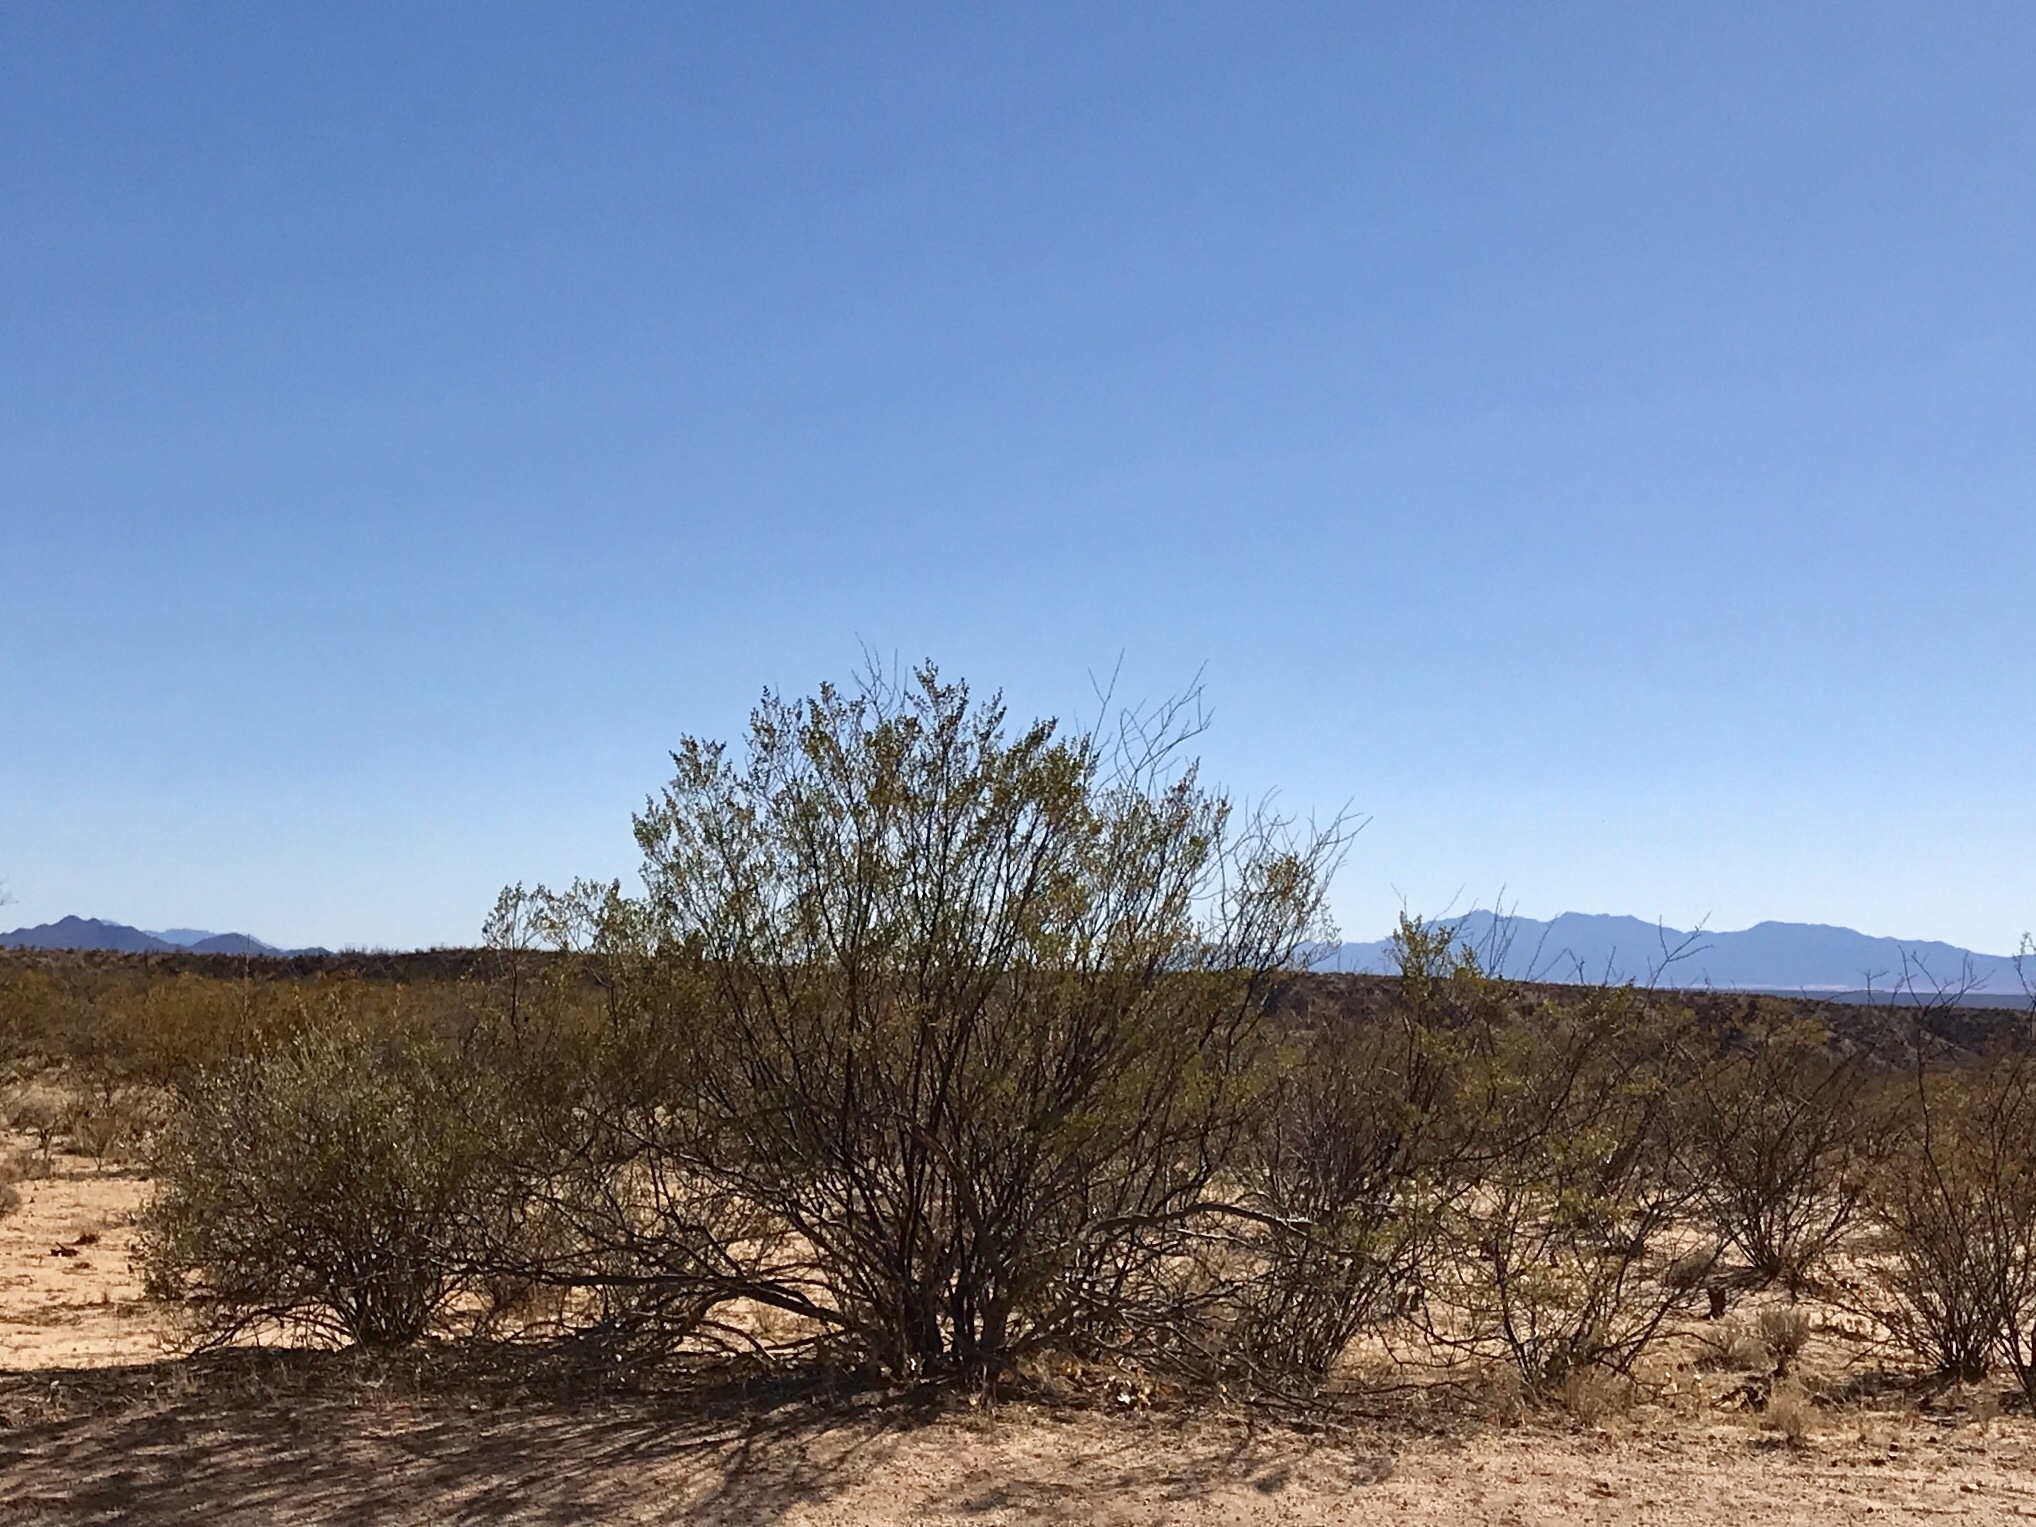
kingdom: Plantae
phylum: Tracheophyta
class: Magnoliopsida
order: Zygophyllales
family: Zygophyllaceae
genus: Larrea
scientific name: Larrea tridentata
